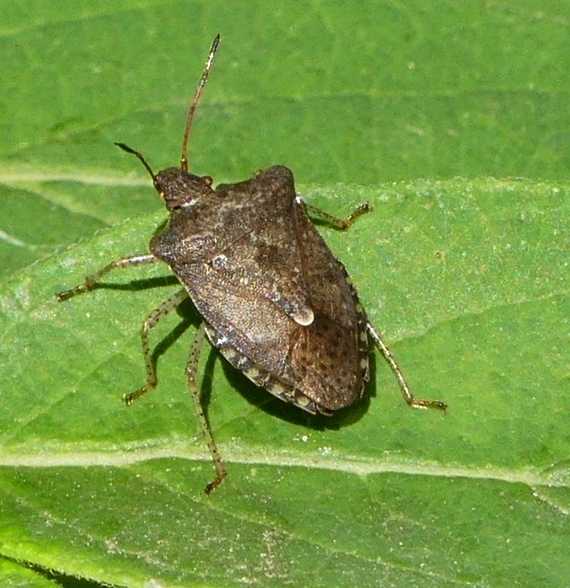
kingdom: Animalia
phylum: Arthropoda
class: Insecta
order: Hemiptera
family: Pentatomidae
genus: Euschistus
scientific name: Euschistus tristigmus
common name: Dusky stink bug
